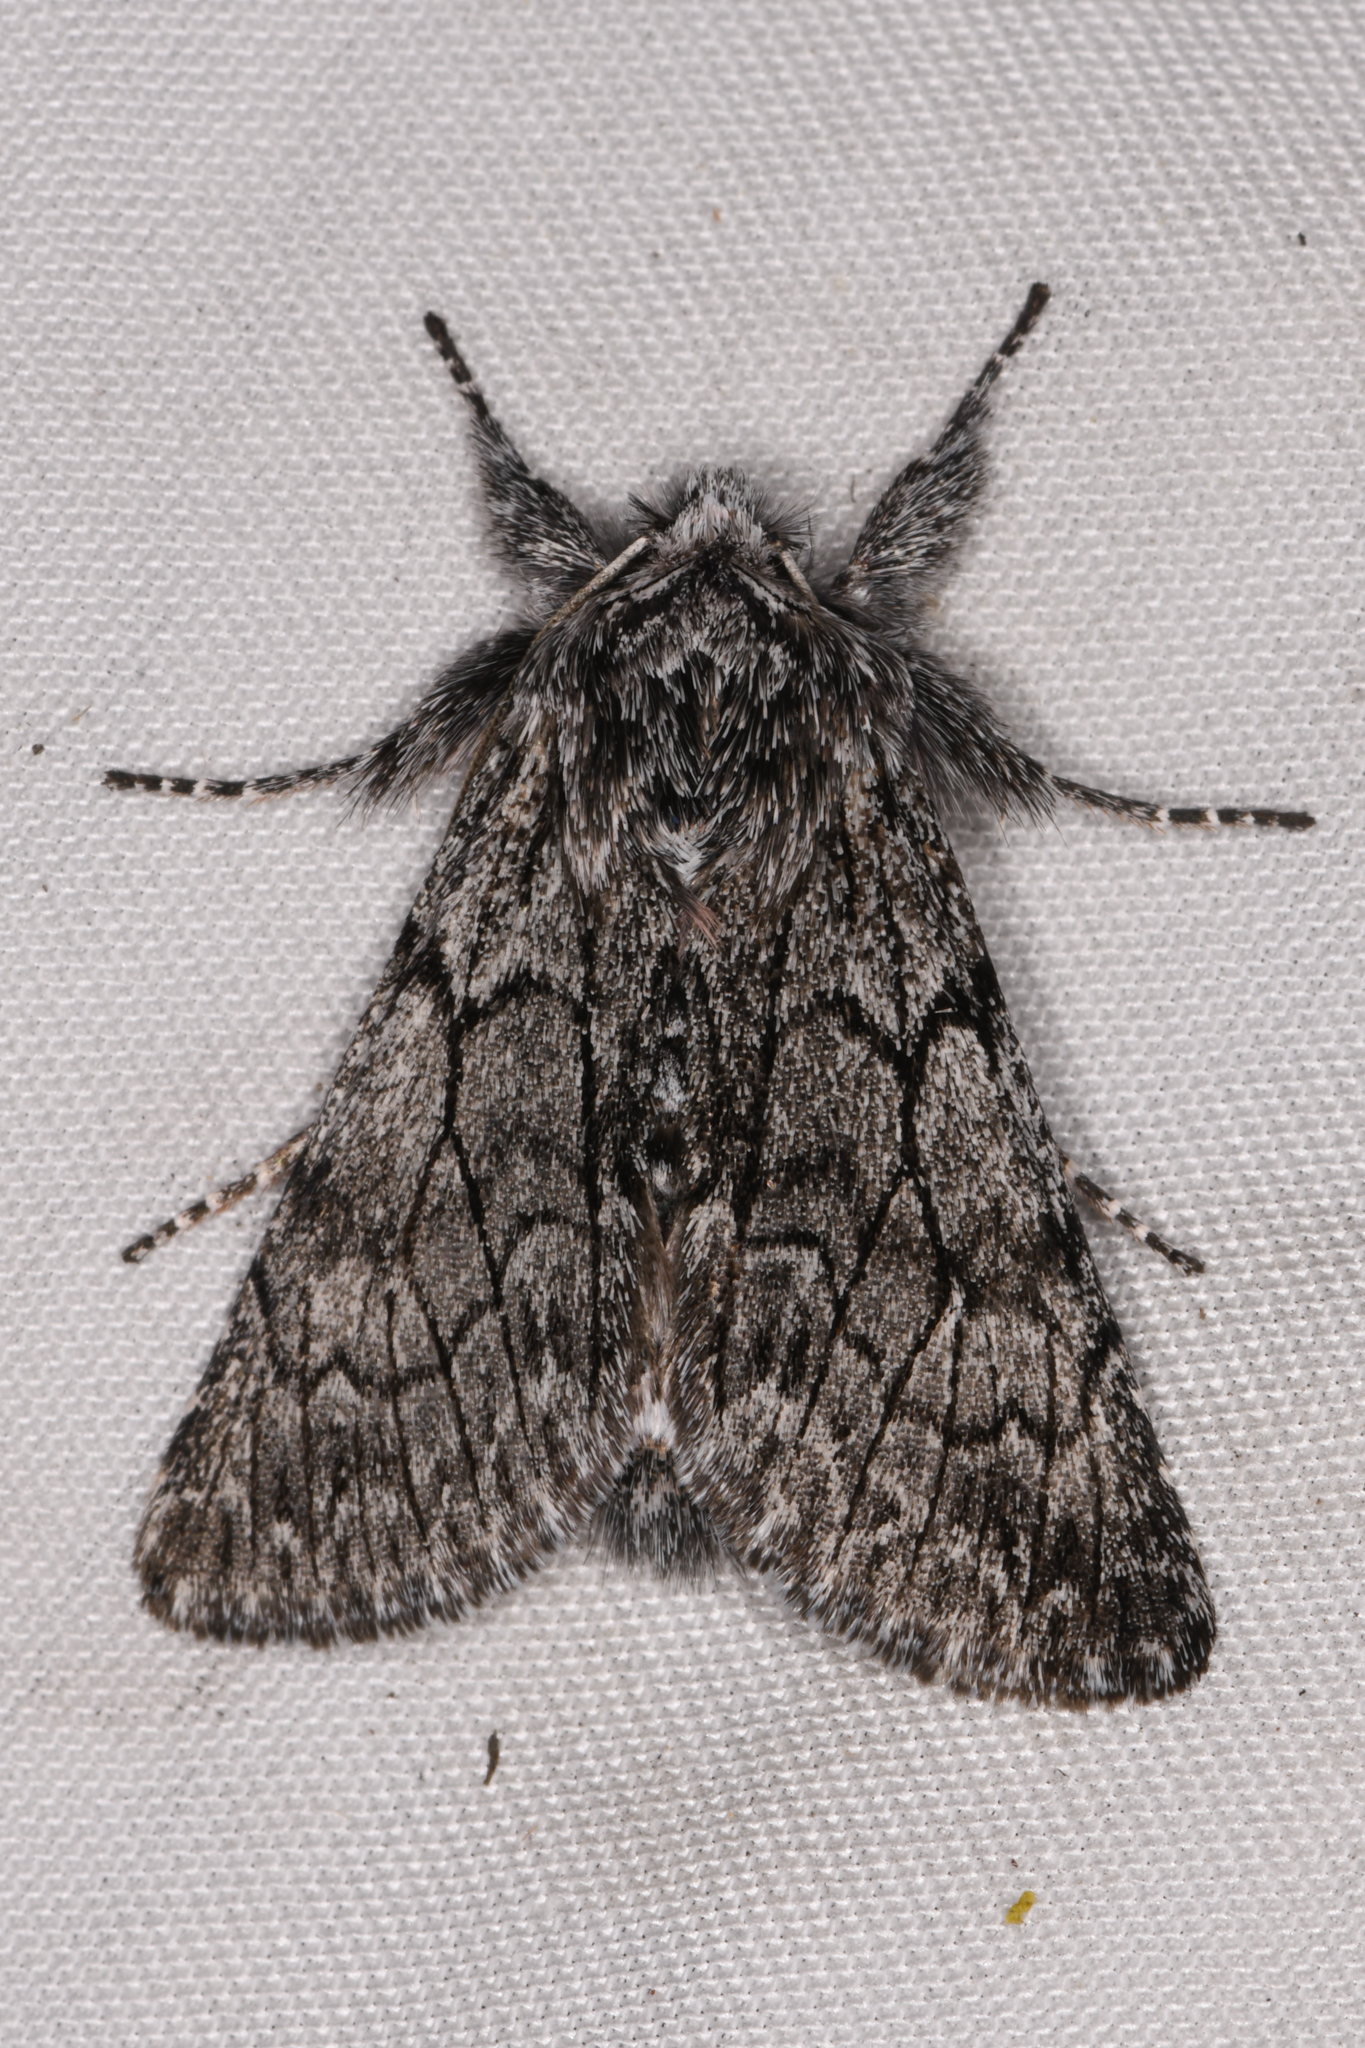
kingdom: Animalia
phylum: Arthropoda
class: Insecta
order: Lepidoptera
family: Noctuidae
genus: Pleromelloida
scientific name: Pleromelloida conserta
